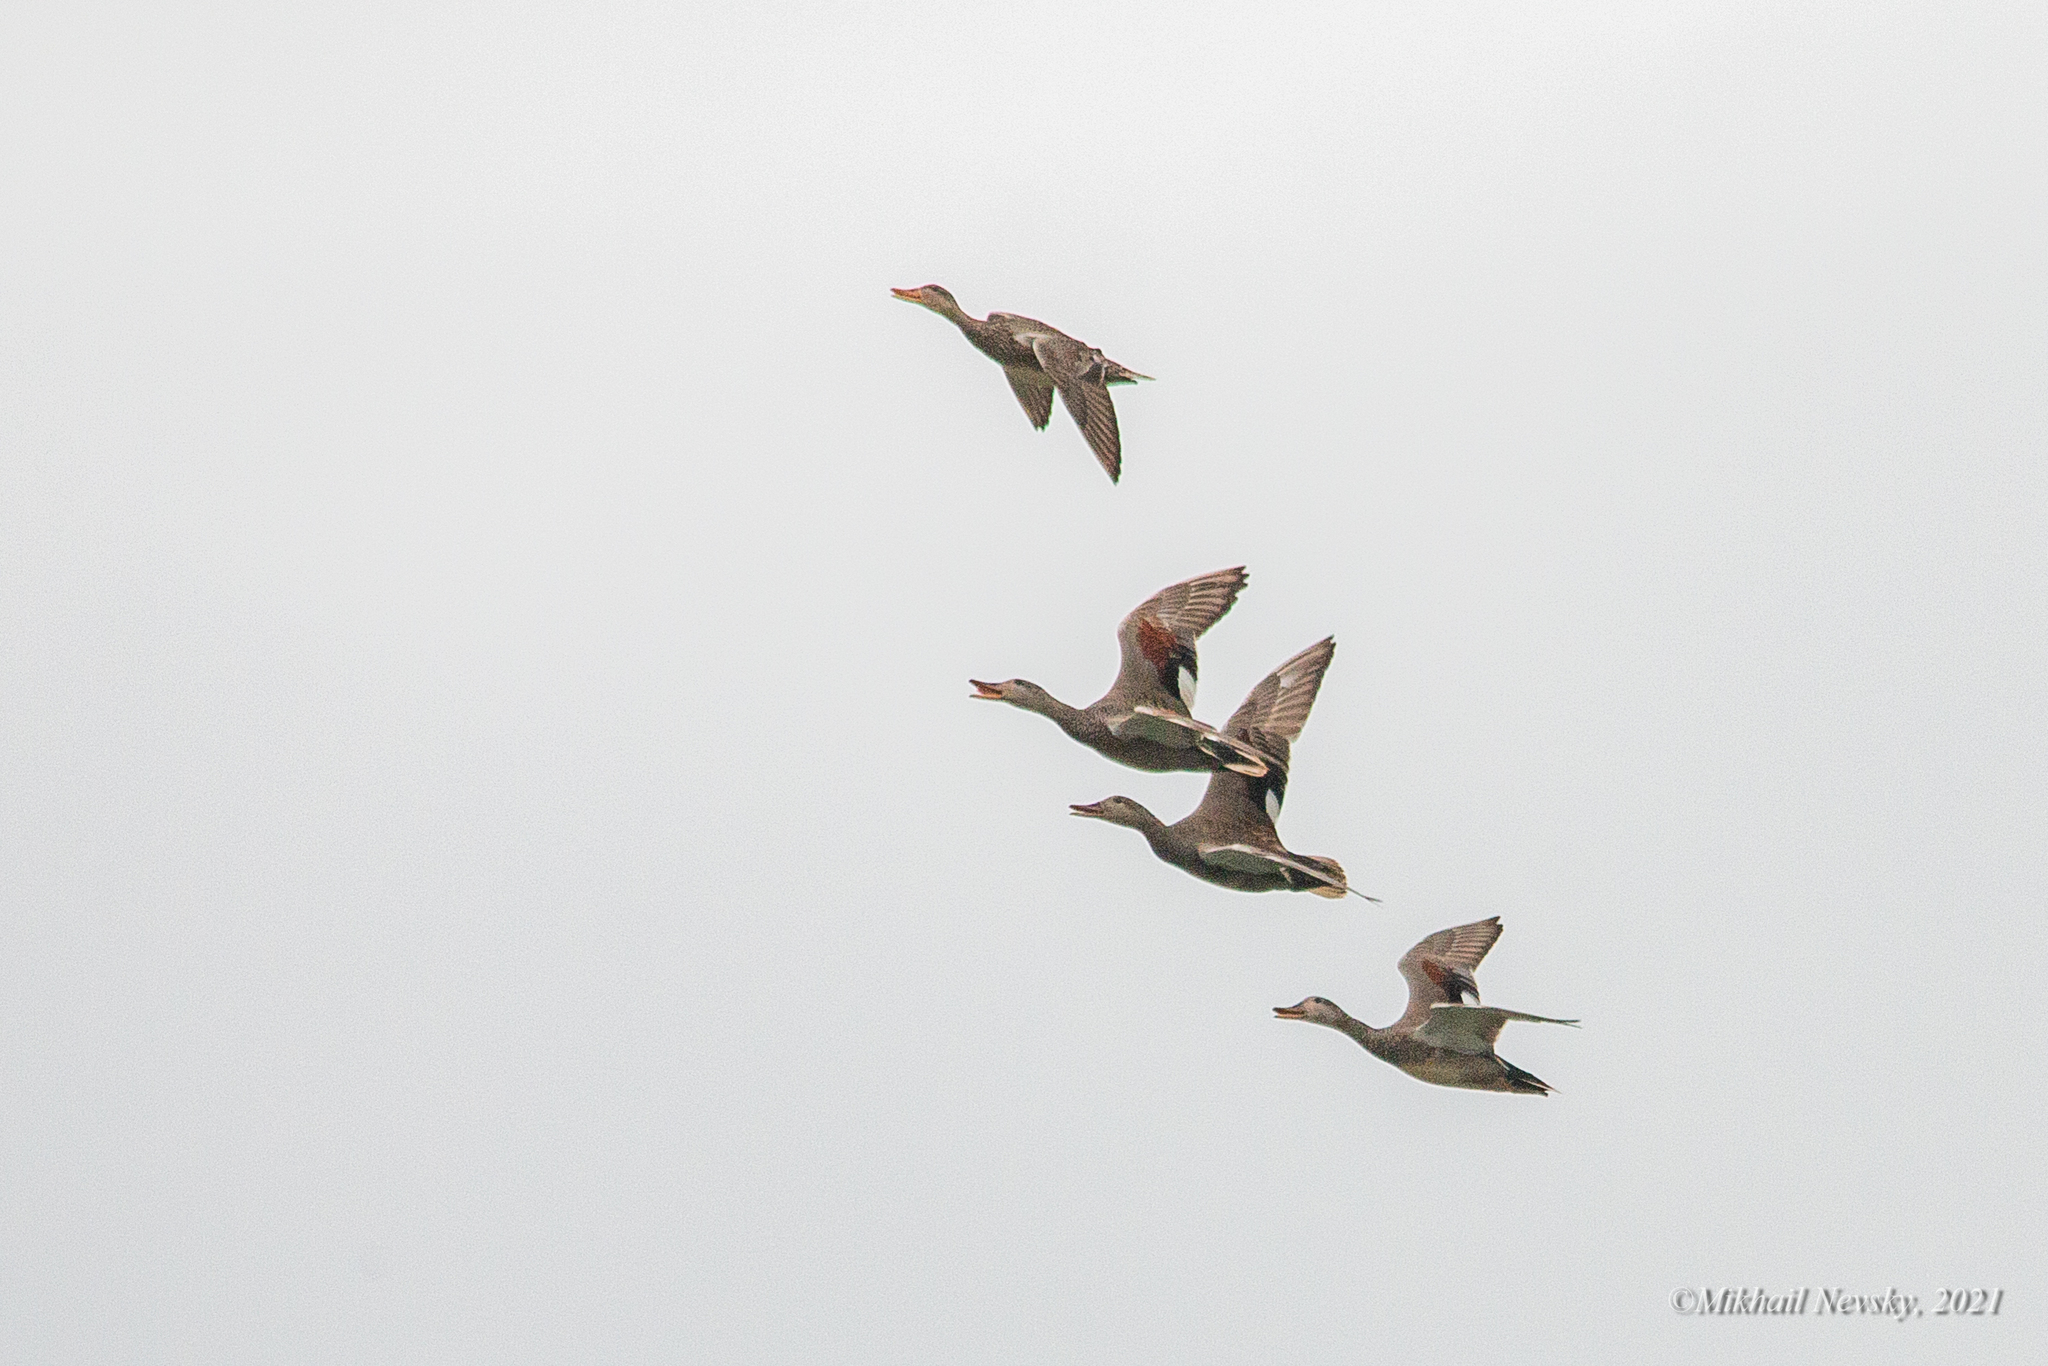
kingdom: Animalia
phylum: Chordata
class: Aves
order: Anseriformes
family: Anatidae
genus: Mareca
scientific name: Mareca strepera
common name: Gadwall
